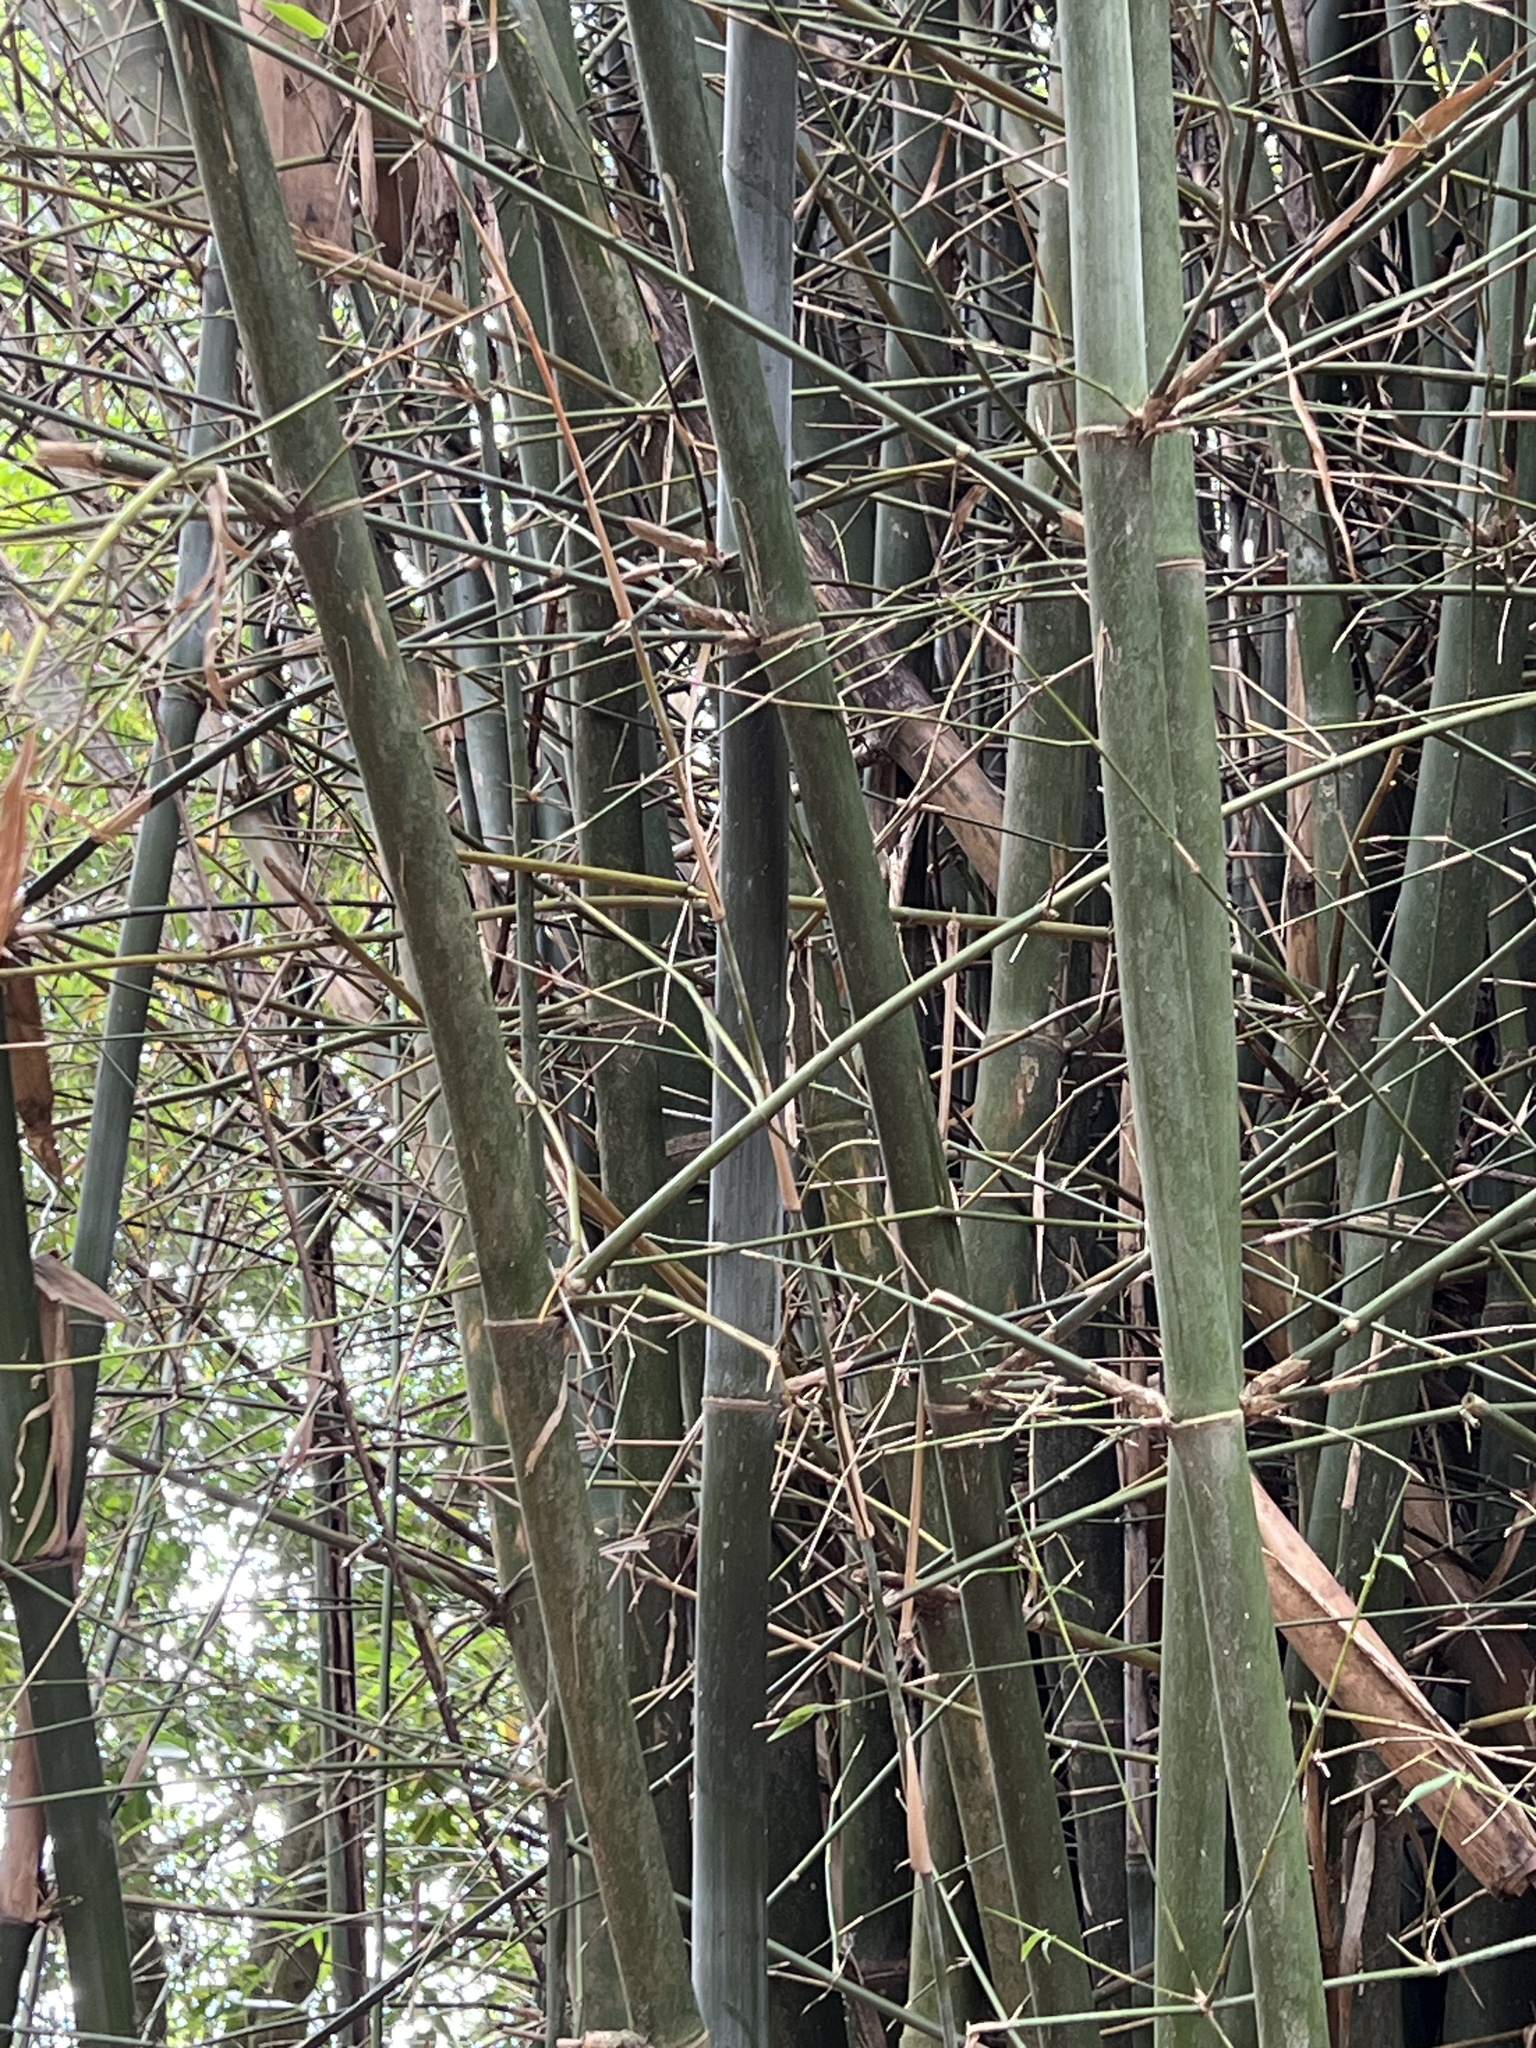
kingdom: Plantae
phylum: Tracheophyta
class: Liliopsida
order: Poales
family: Poaceae
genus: Bambusa
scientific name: Bambusa dolichoclada
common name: Long-shoot bamboo
